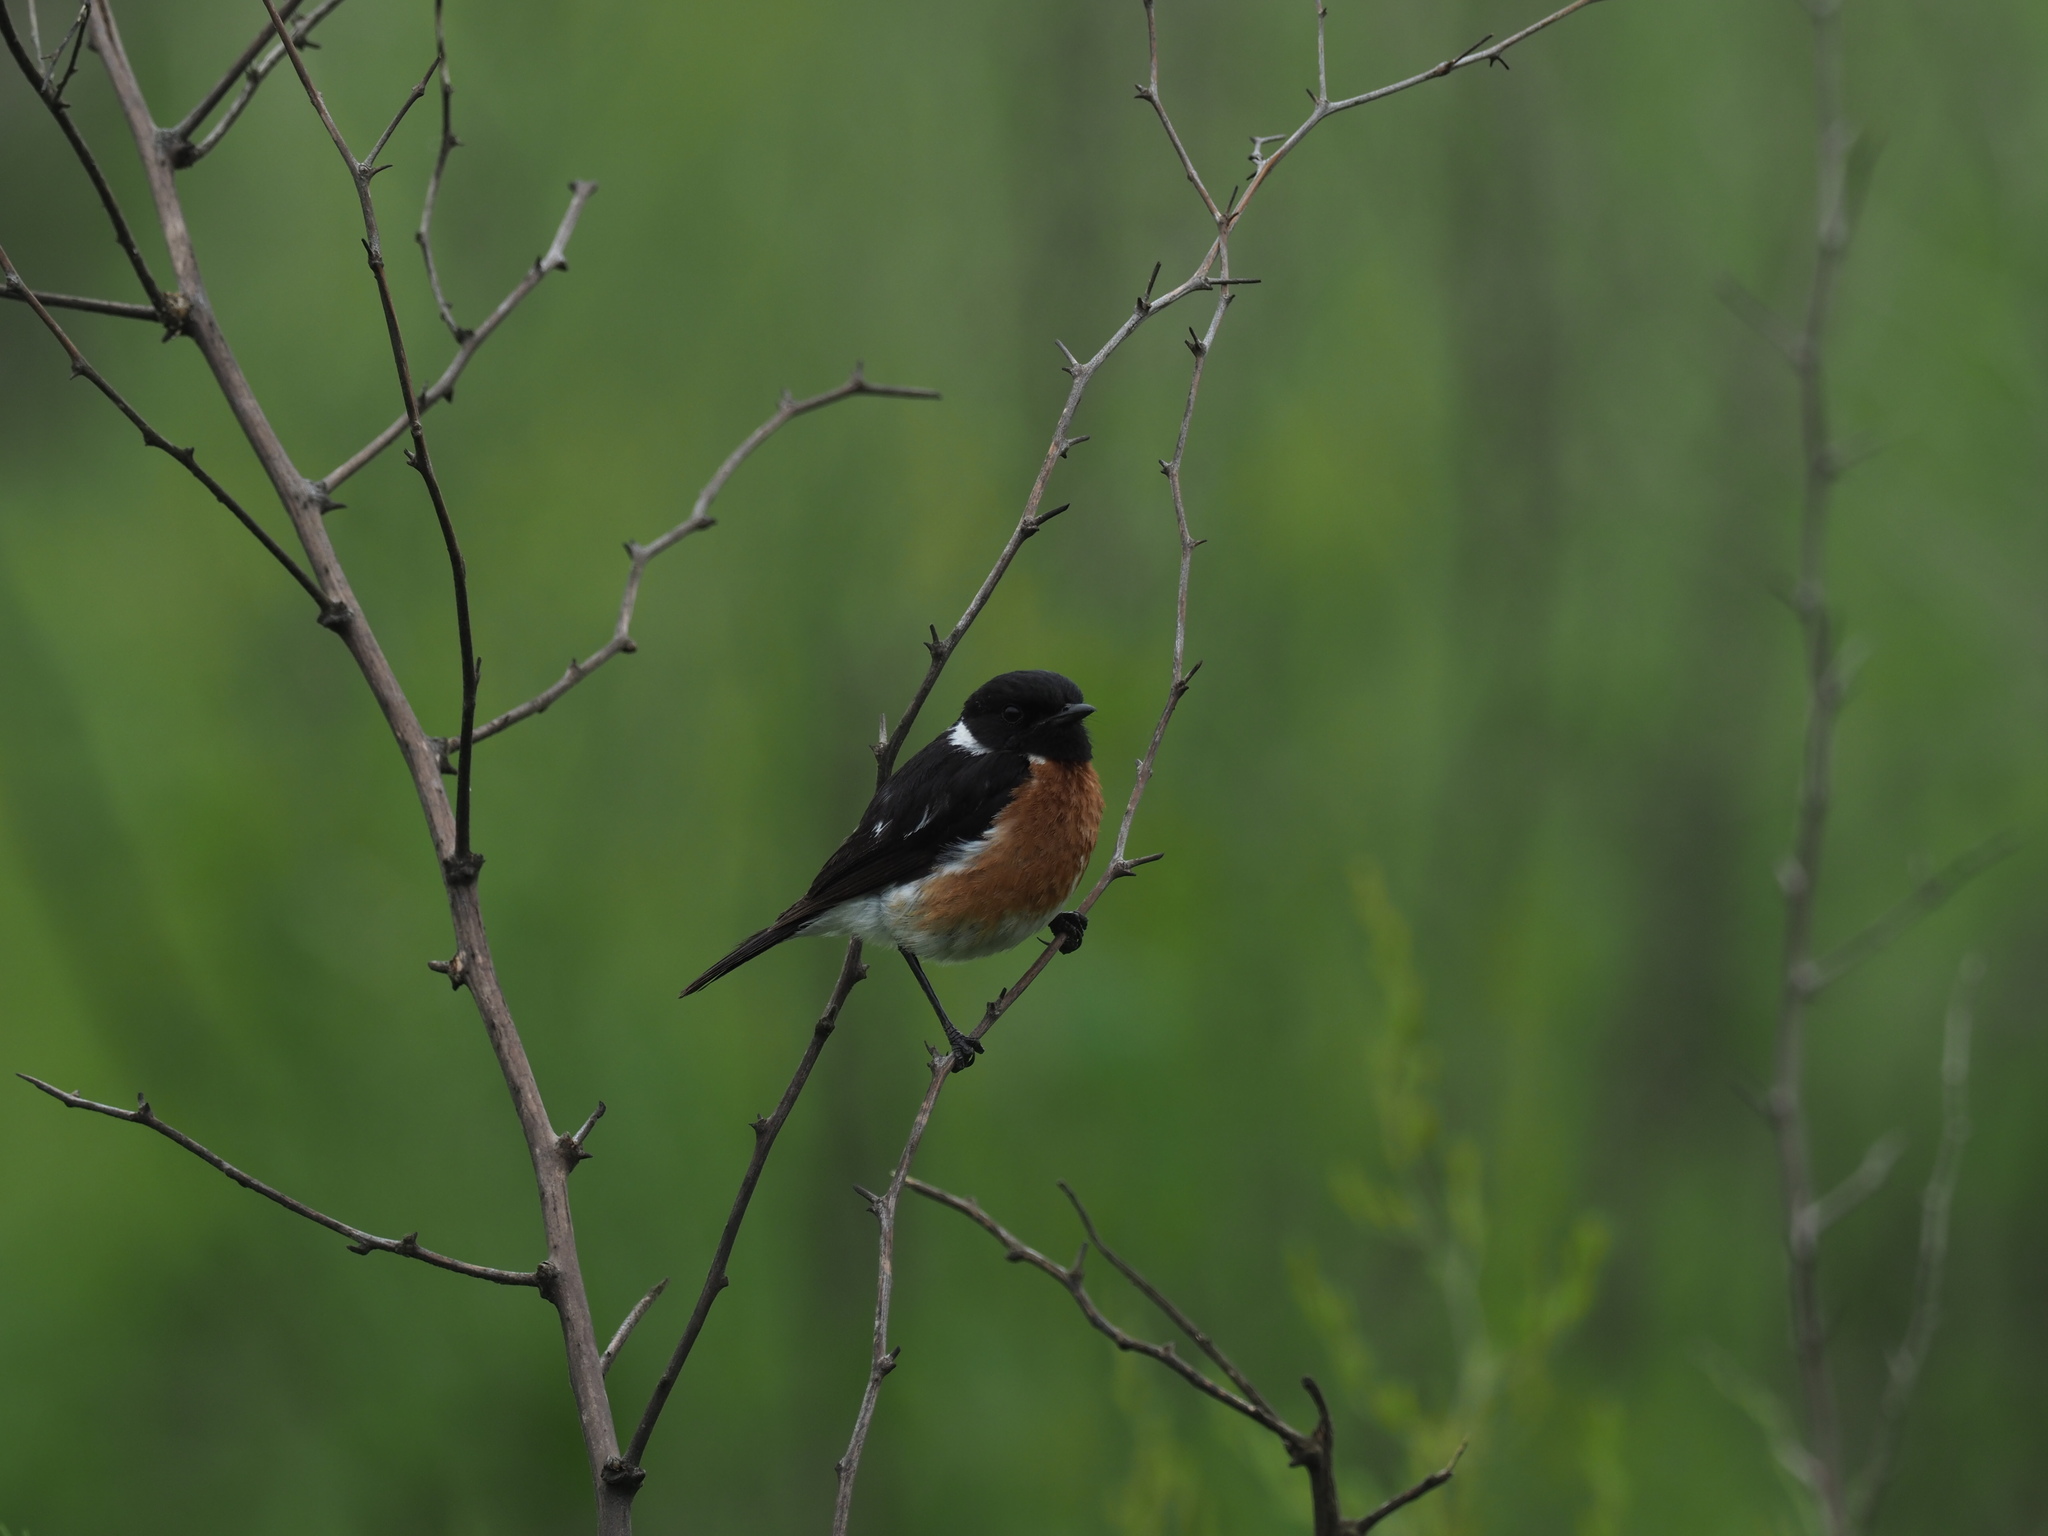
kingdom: Animalia
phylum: Chordata
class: Aves
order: Passeriformes
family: Muscicapidae
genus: Saxicola
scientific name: Saxicola torquatus
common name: African stonechat
